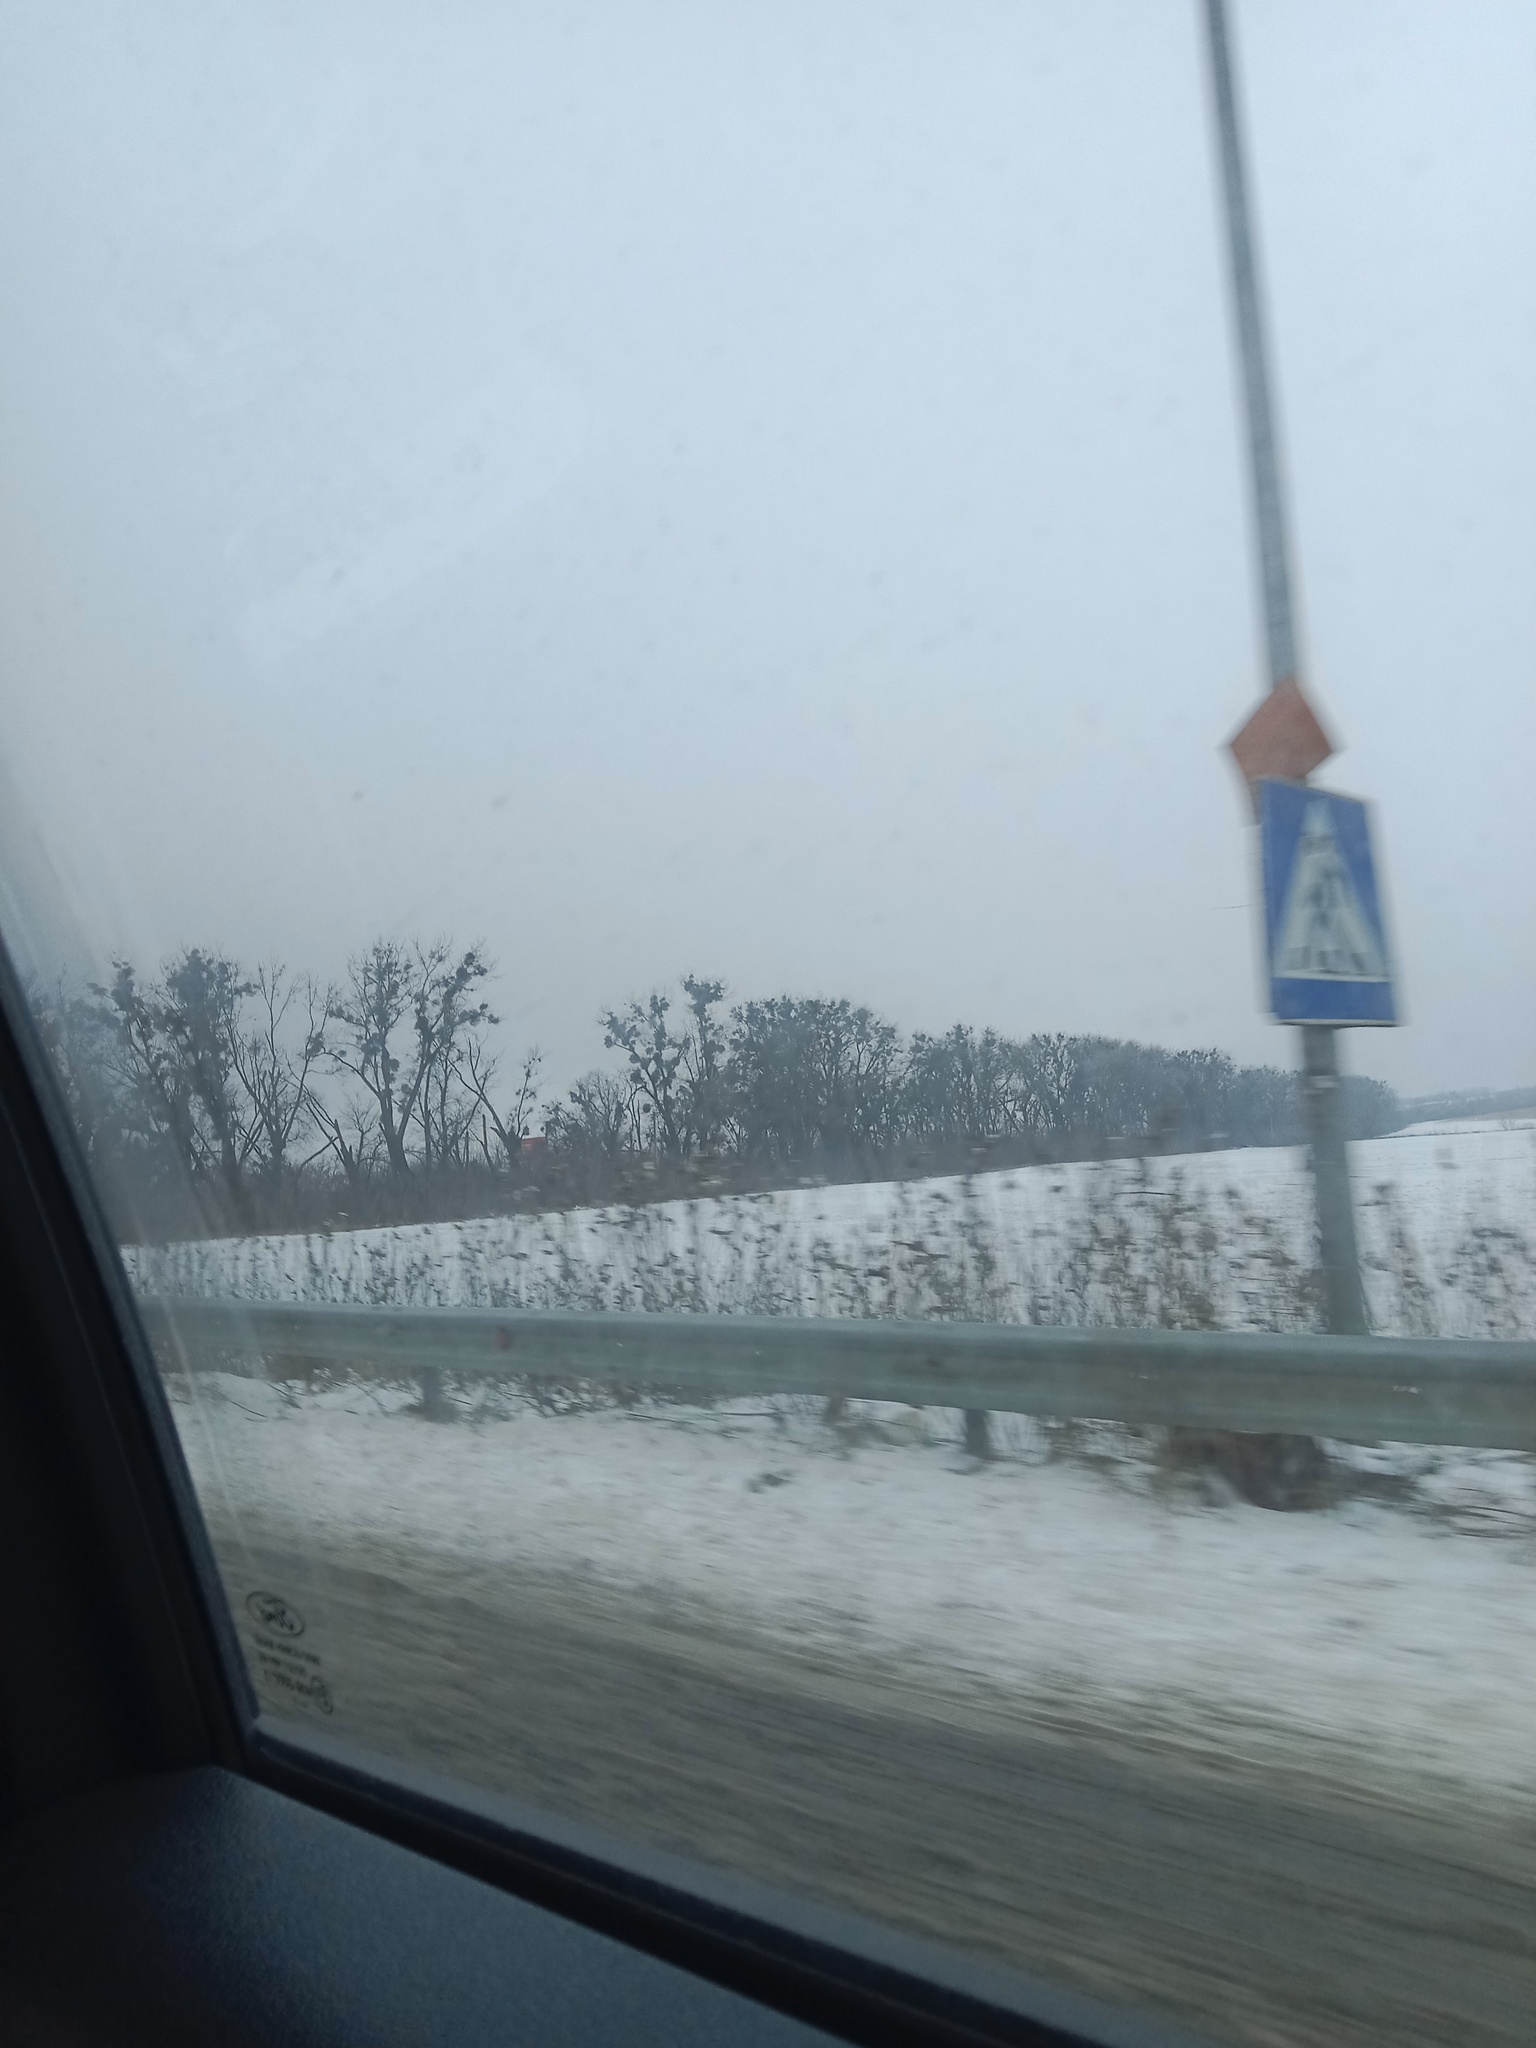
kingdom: Plantae
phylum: Tracheophyta
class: Magnoliopsida
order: Santalales
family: Viscaceae
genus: Viscum
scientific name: Viscum album
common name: Mistletoe
